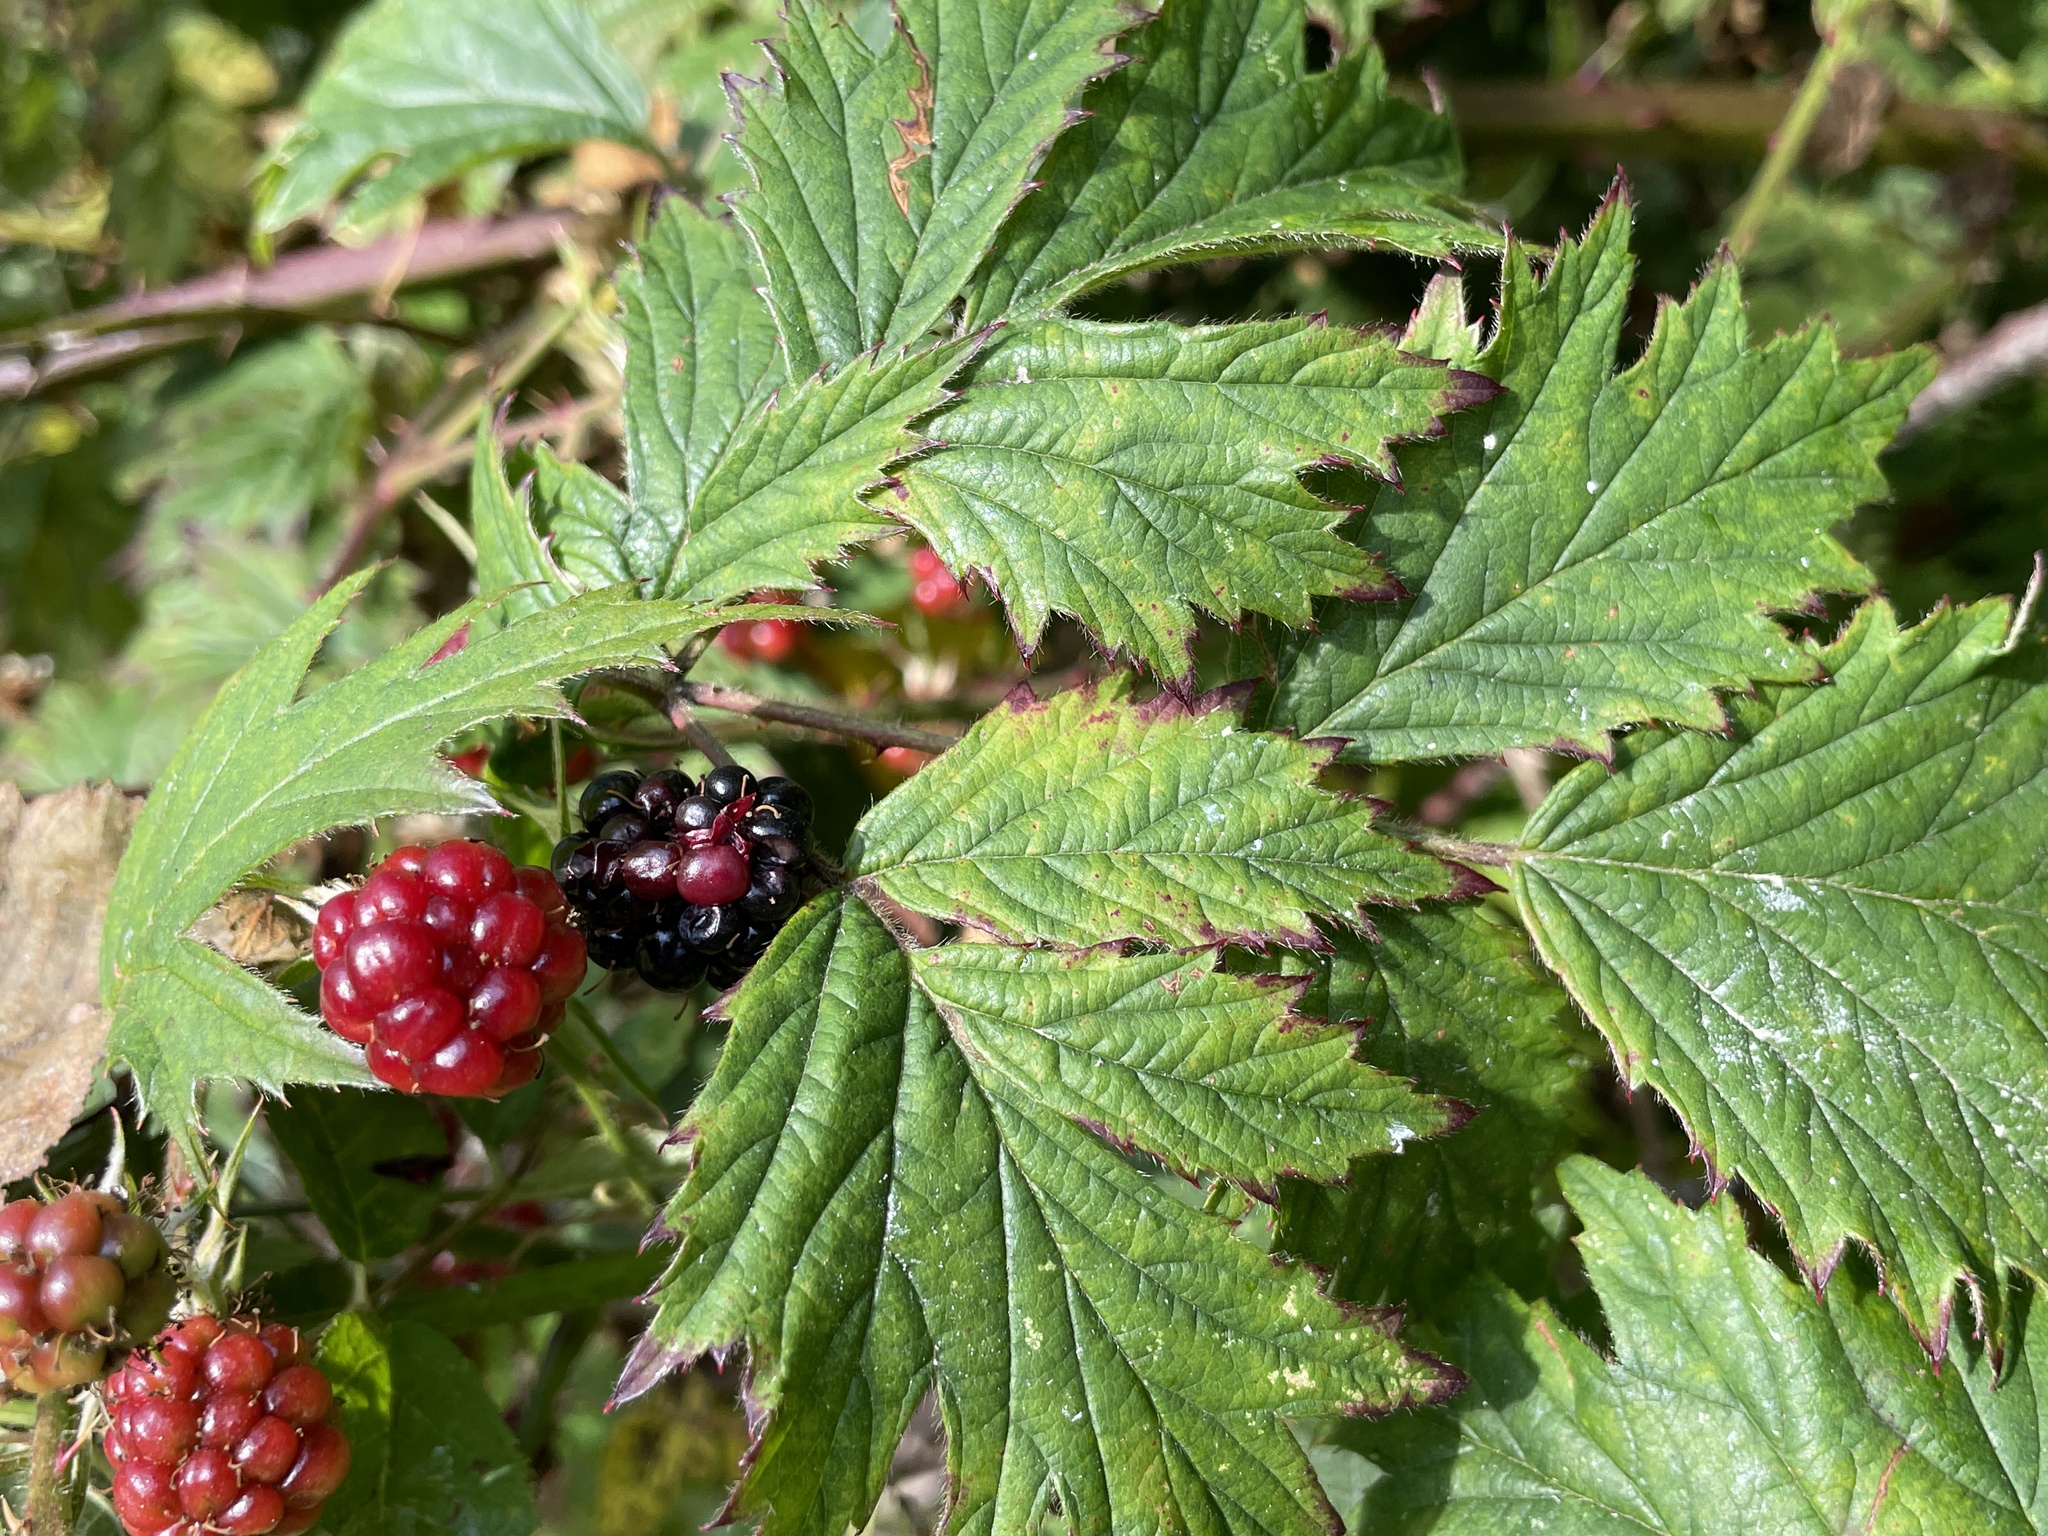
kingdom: Plantae
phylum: Tracheophyta
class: Magnoliopsida
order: Rosales
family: Rosaceae
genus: Rubus
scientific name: Rubus laciniatus
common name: Evergreen blackberry
